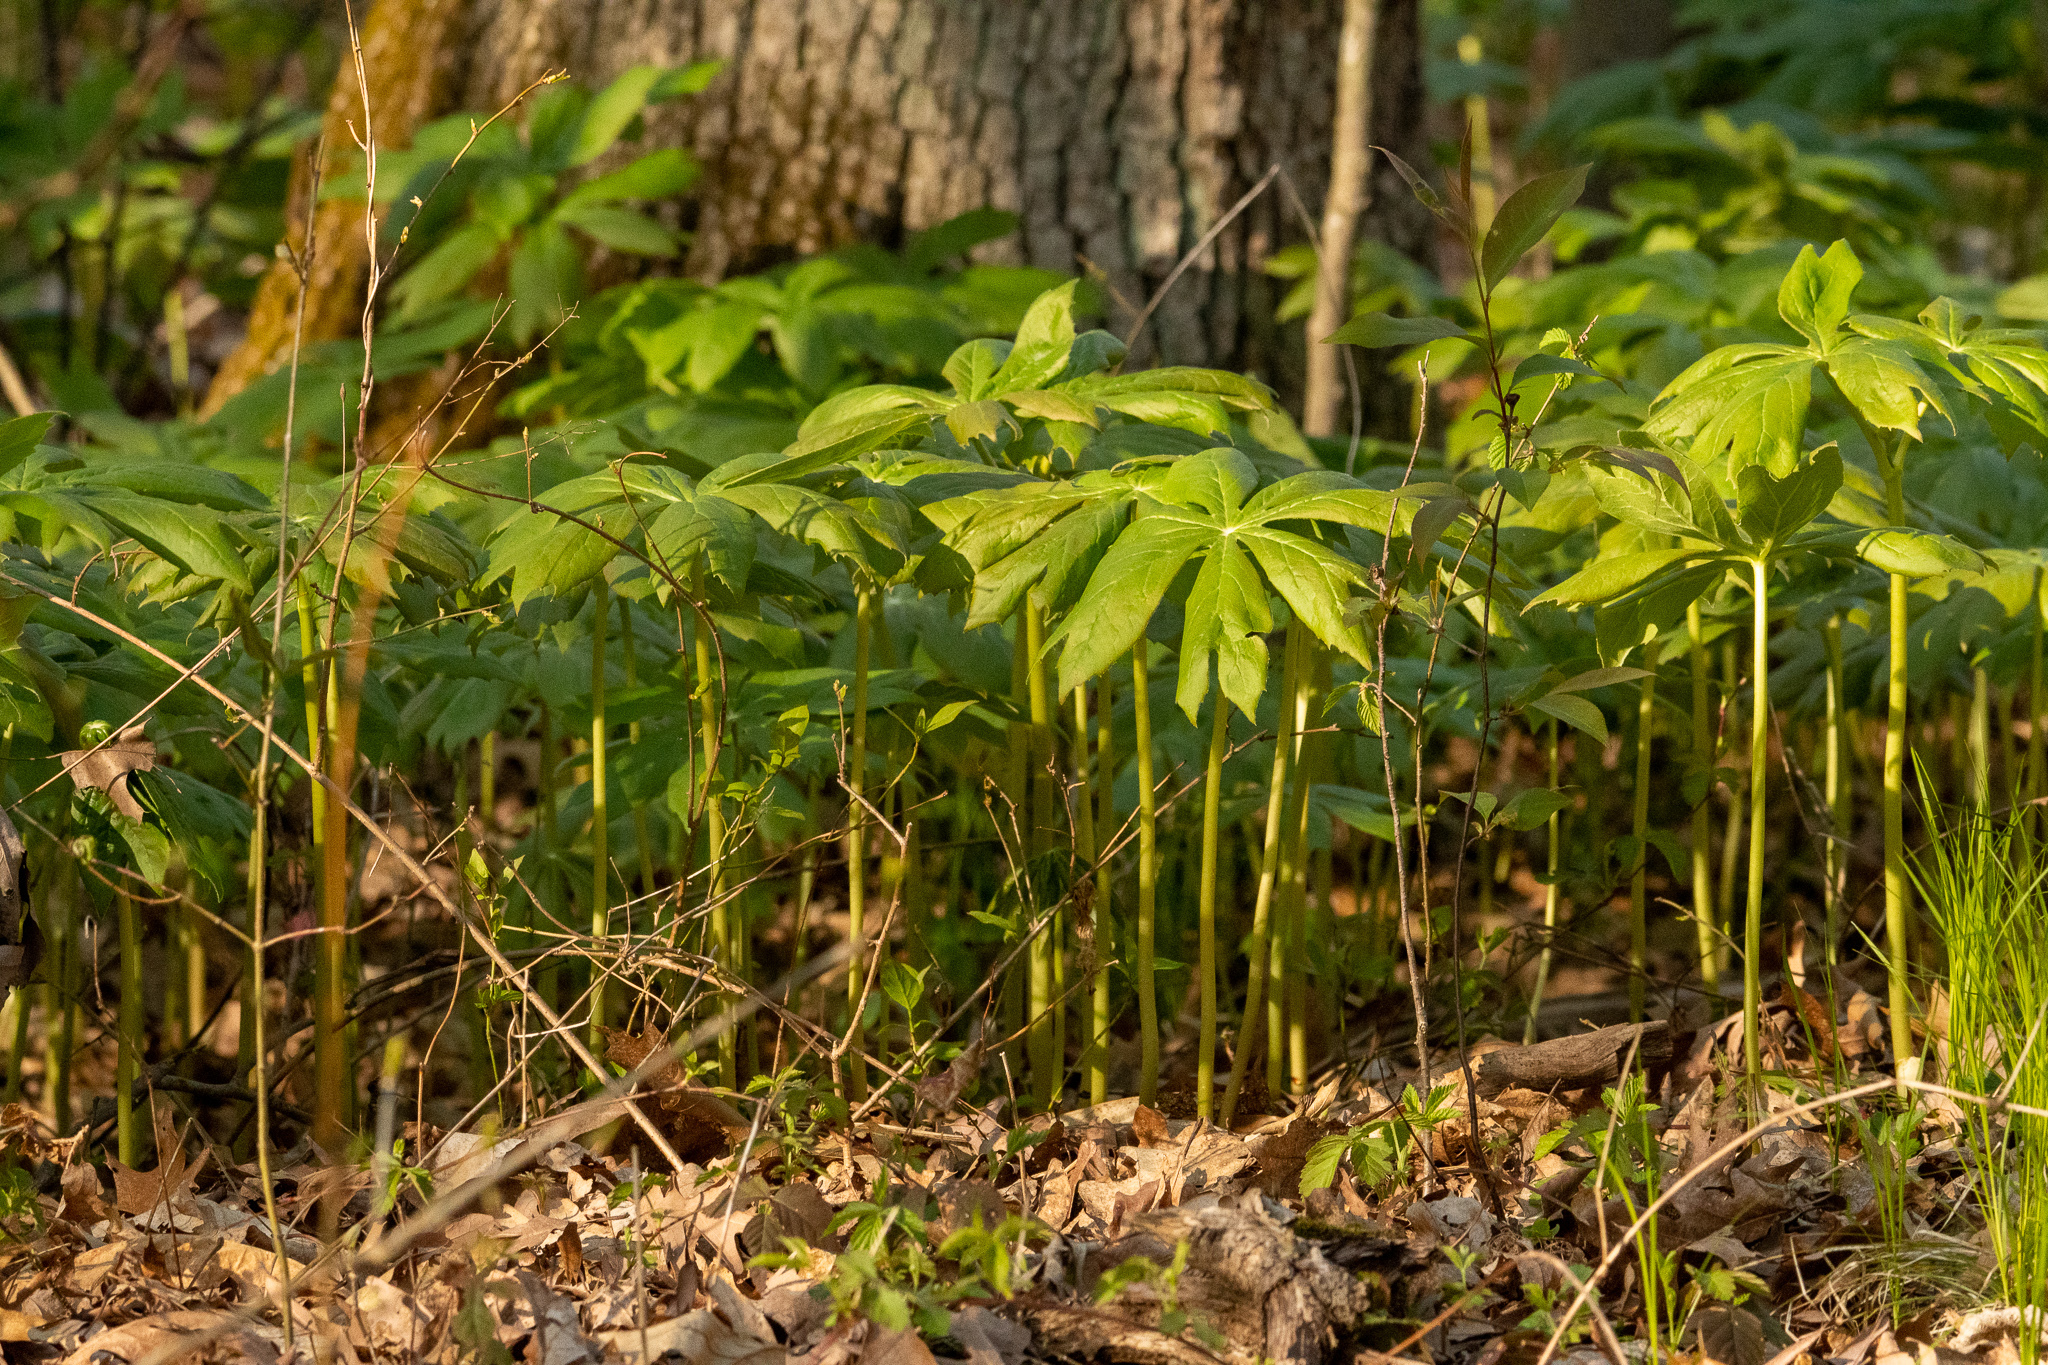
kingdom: Plantae
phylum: Tracheophyta
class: Magnoliopsida
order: Ranunculales
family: Berberidaceae
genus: Podophyllum
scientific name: Podophyllum peltatum
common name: Wild mandrake
